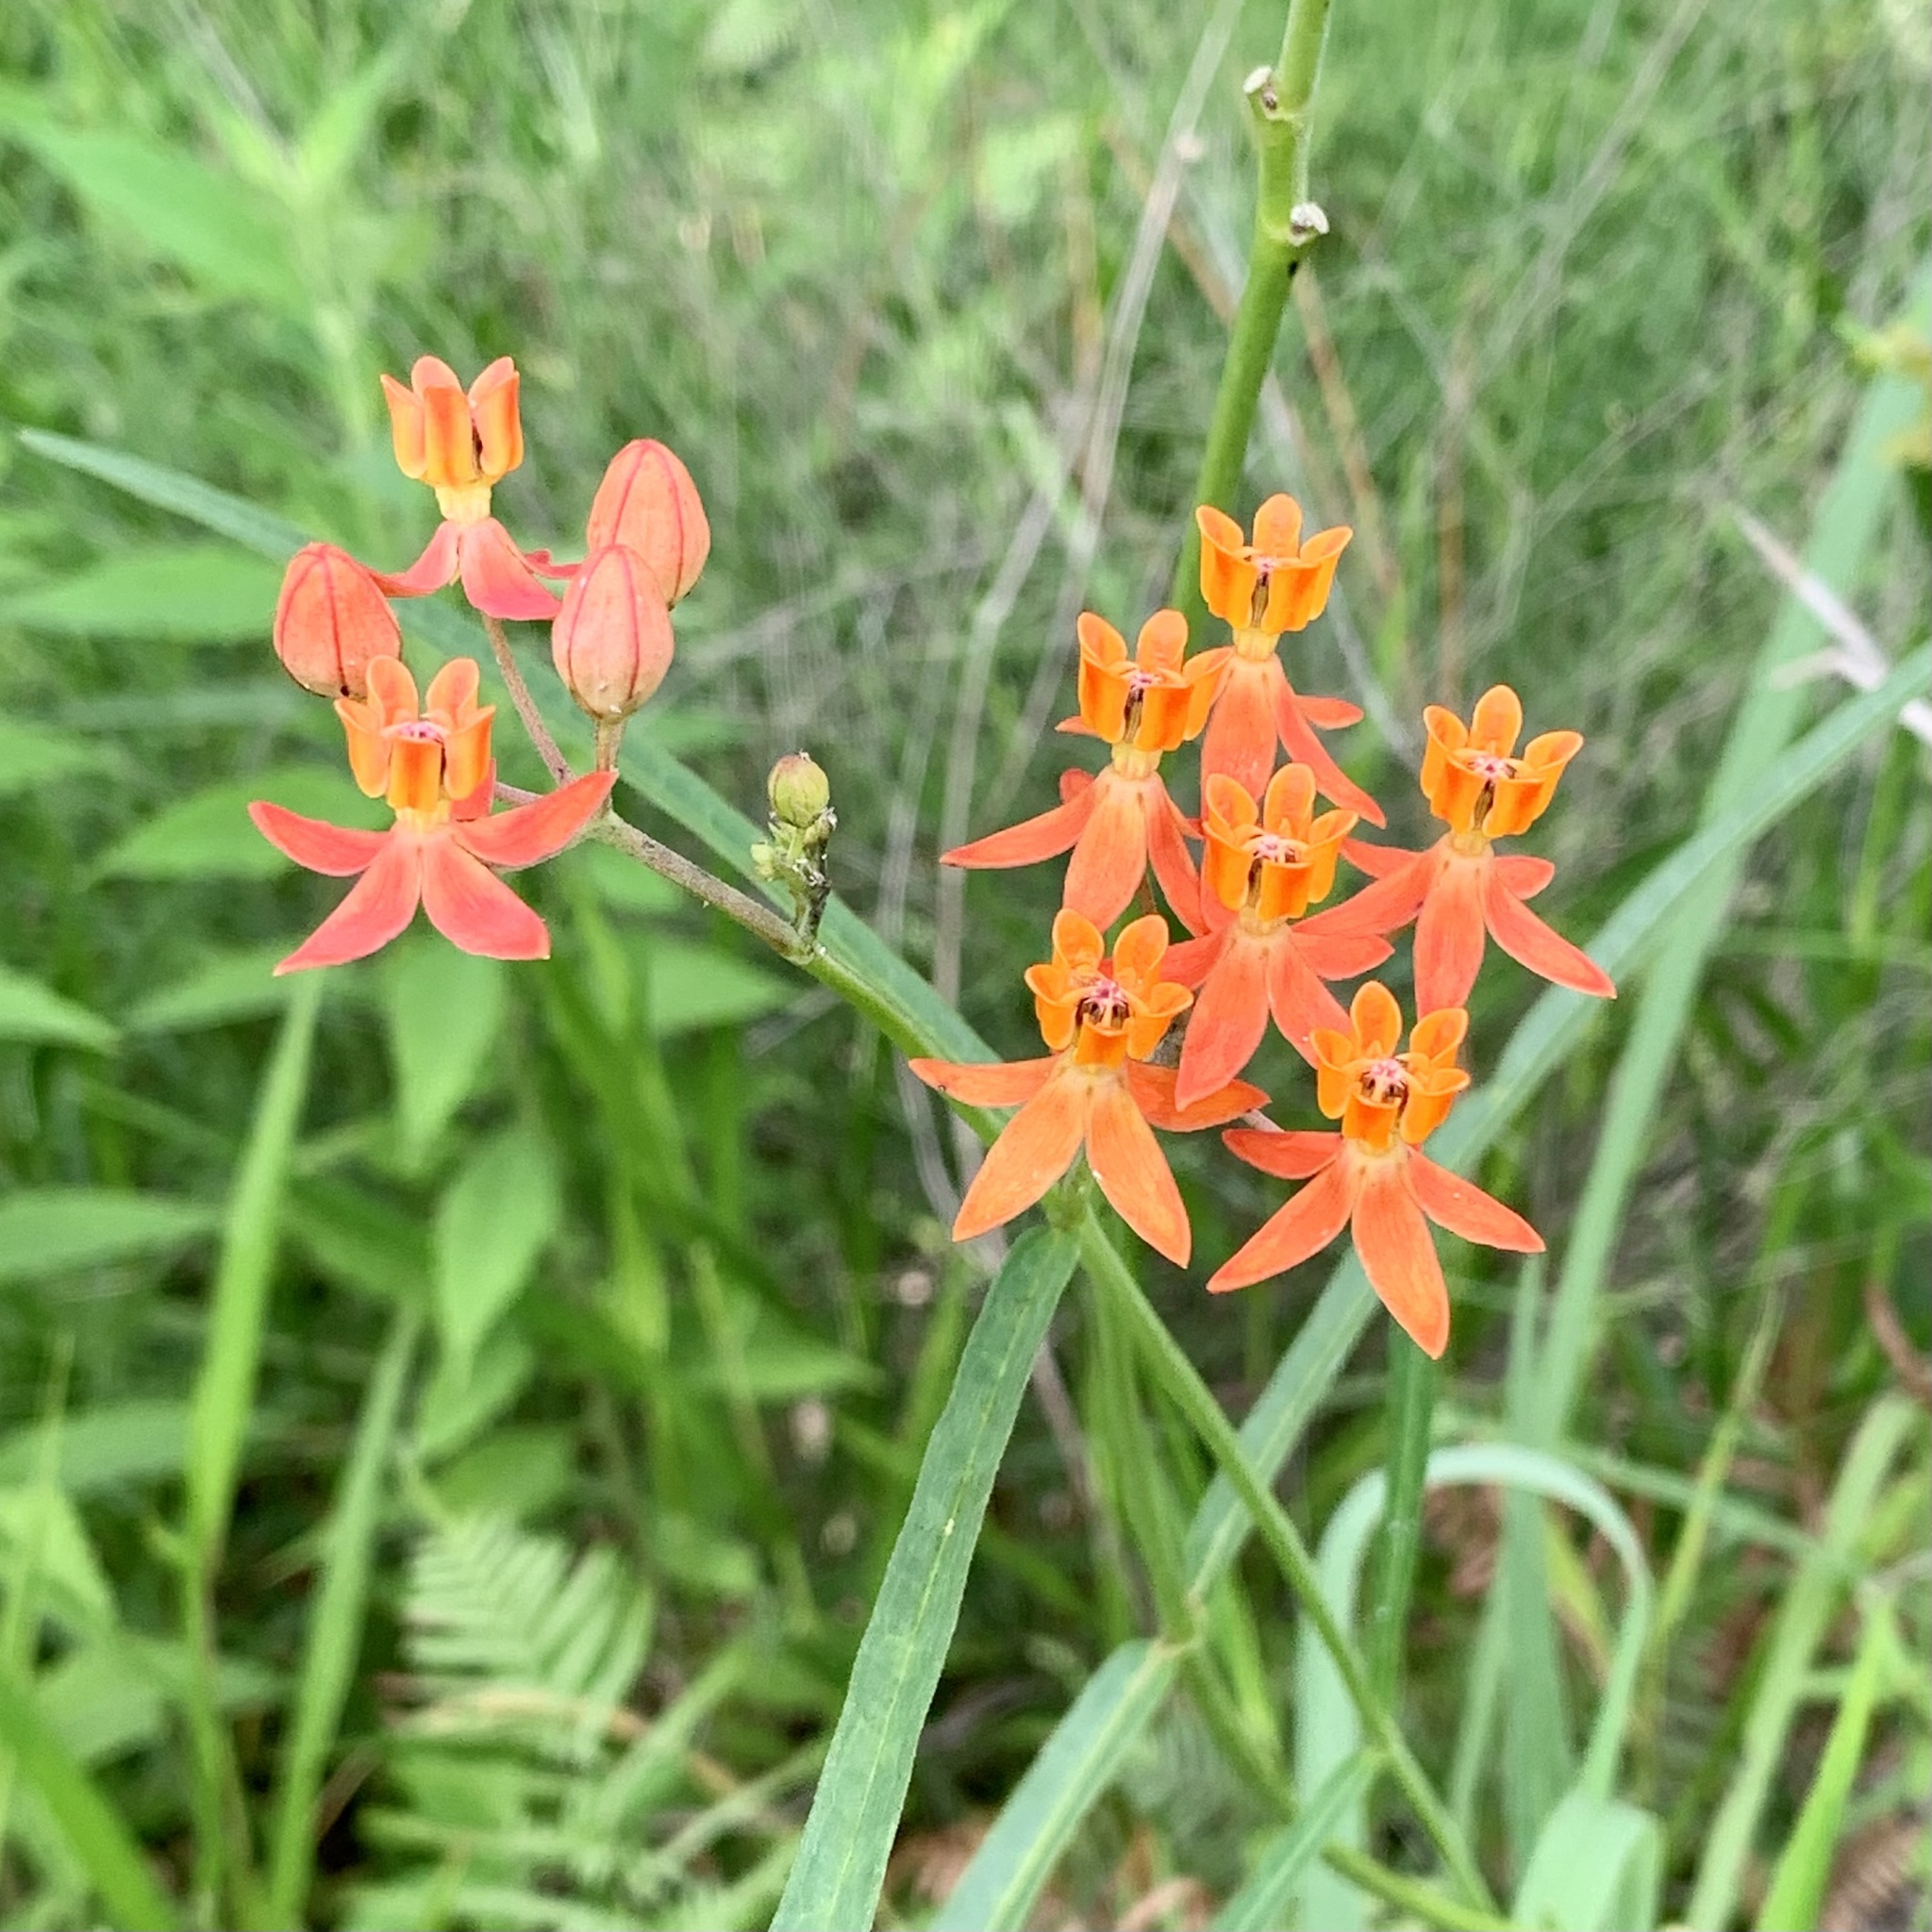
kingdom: Plantae
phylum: Tracheophyta
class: Magnoliopsida
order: Gentianales
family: Apocynaceae
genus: Asclepias
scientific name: Asclepias lanceolata
